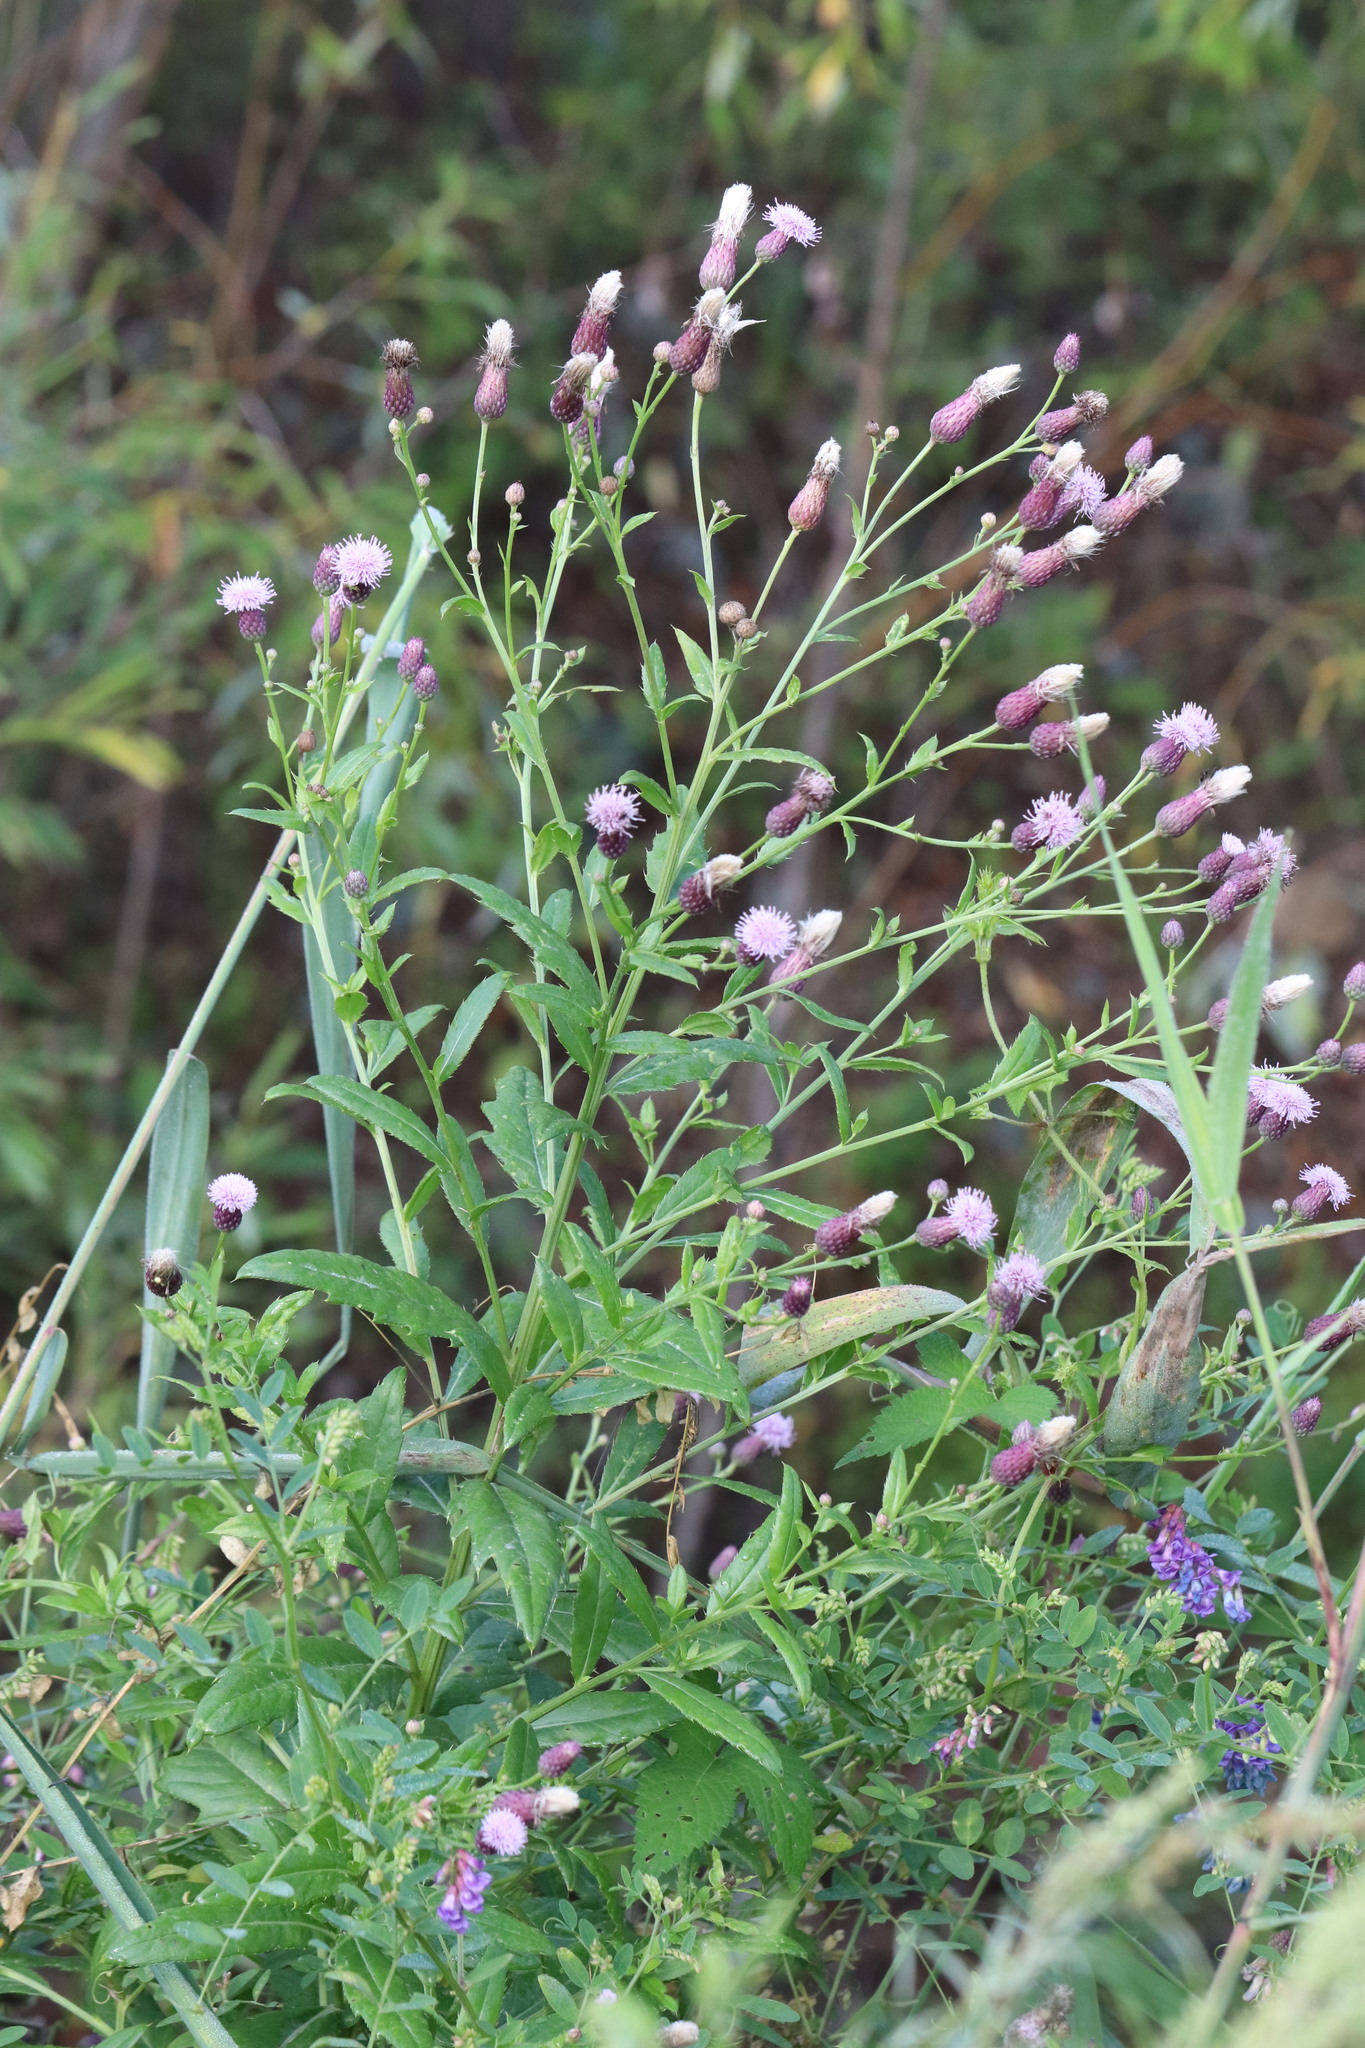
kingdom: Plantae
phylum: Tracheophyta
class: Magnoliopsida
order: Asterales
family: Asteraceae
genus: Cirsium
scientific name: Cirsium arvense
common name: Creeping thistle
